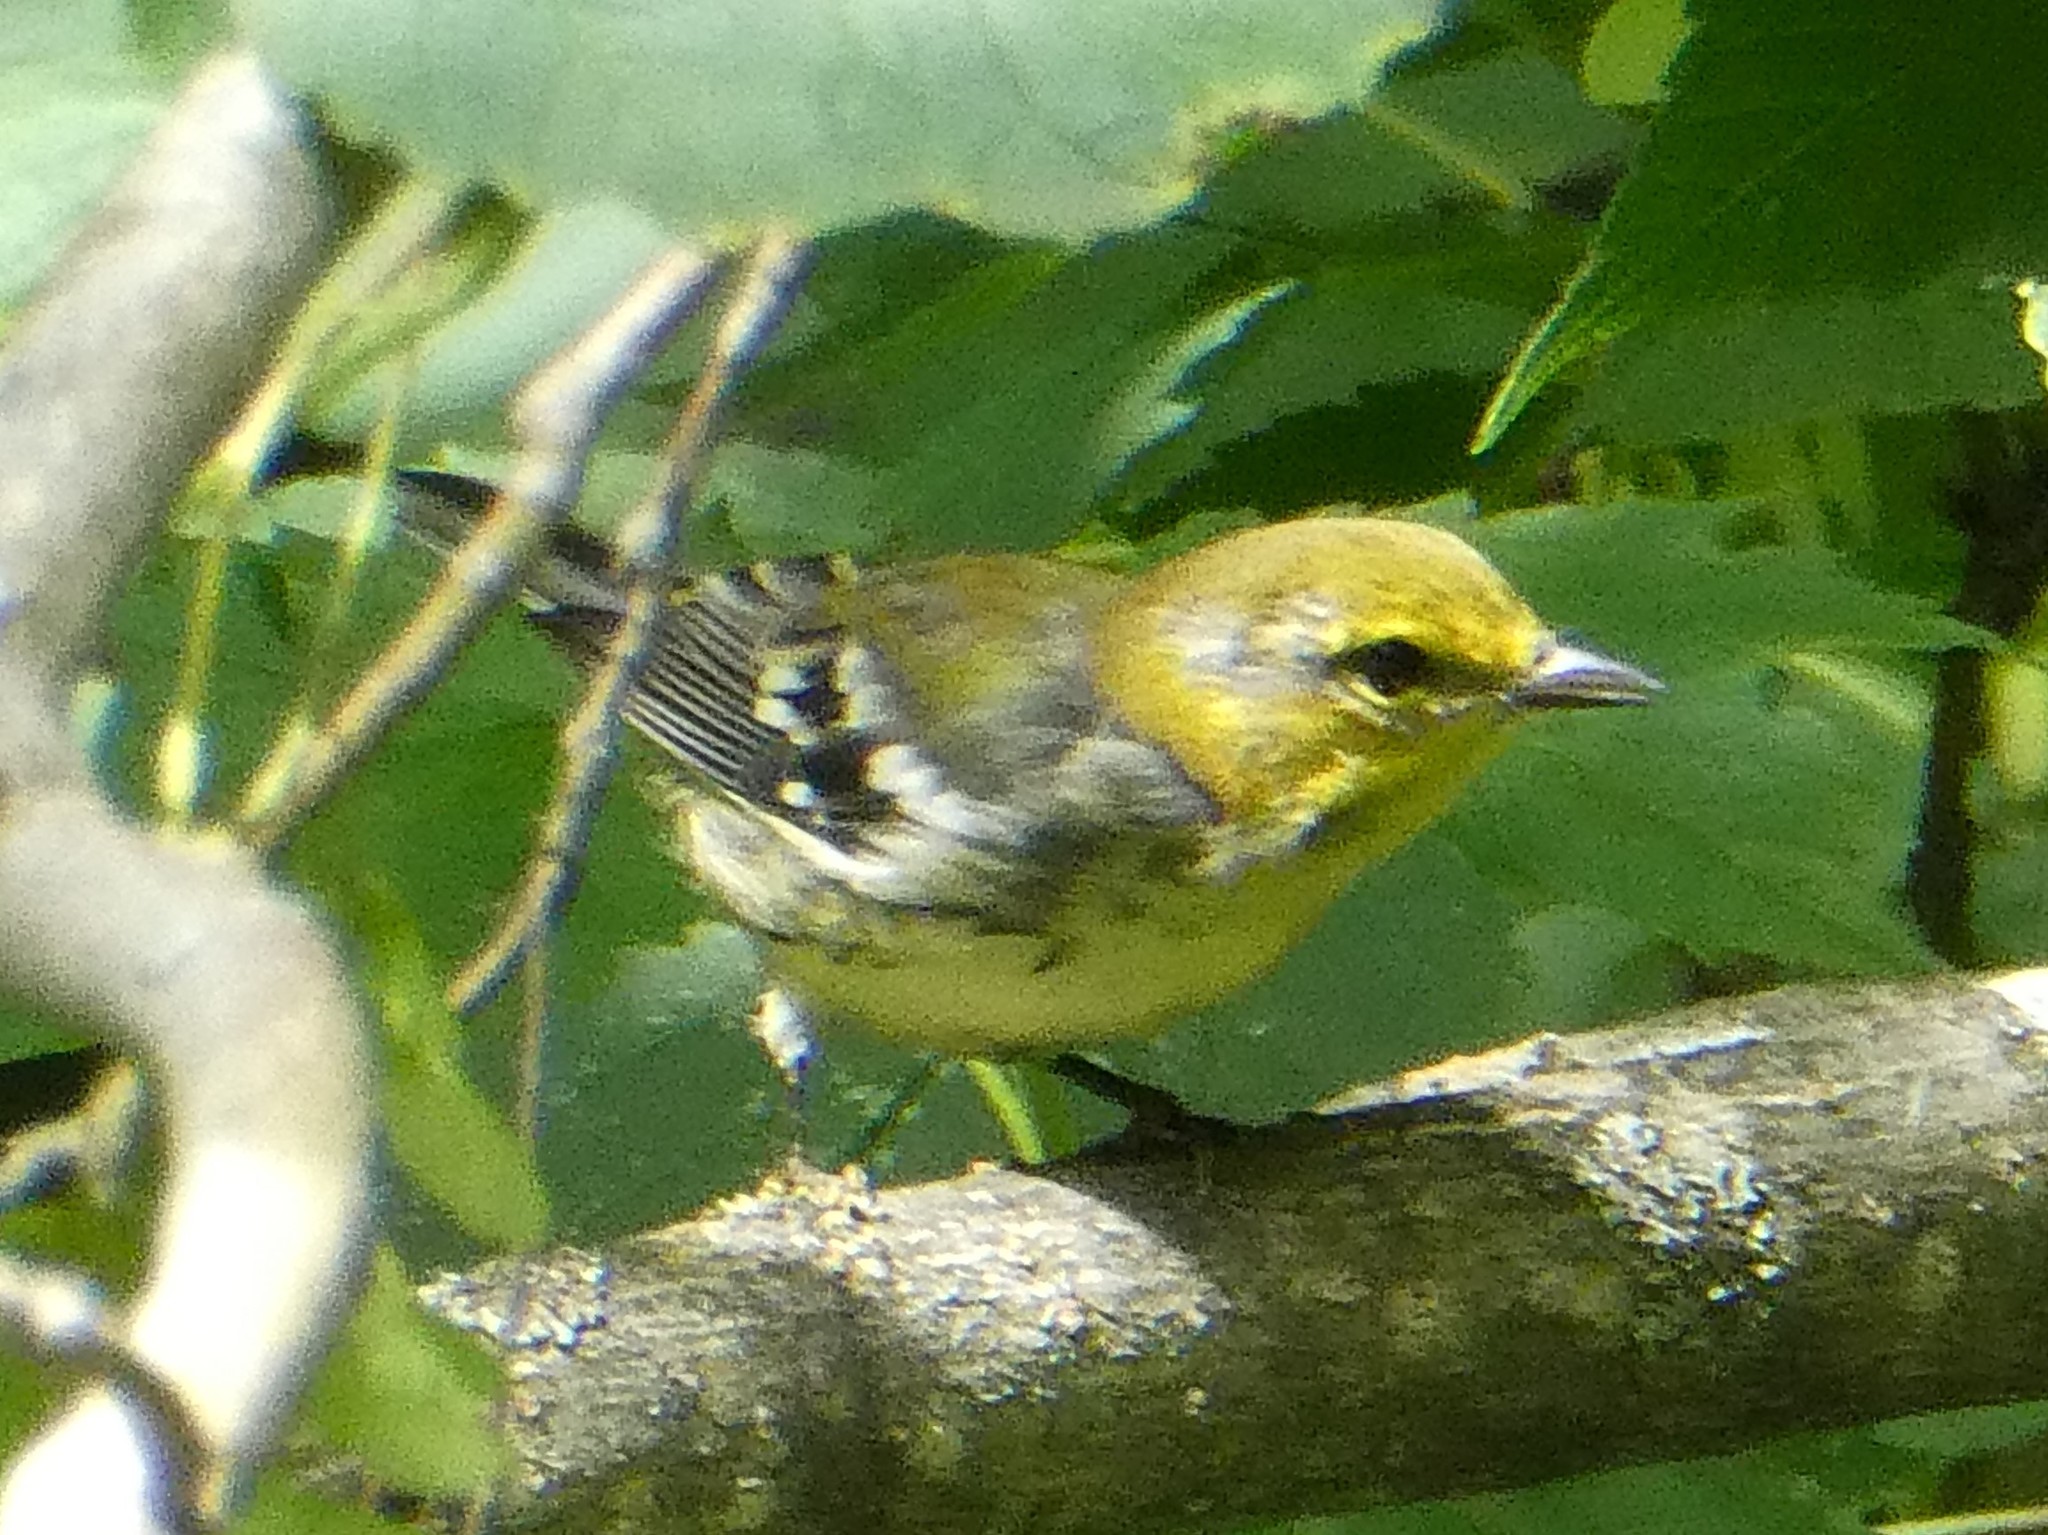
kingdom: Animalia
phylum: Chordata
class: Aves
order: Passeriformes
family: Parulidae
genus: Setophaga
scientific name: Setophaga virens
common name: Black-throated green warbler
